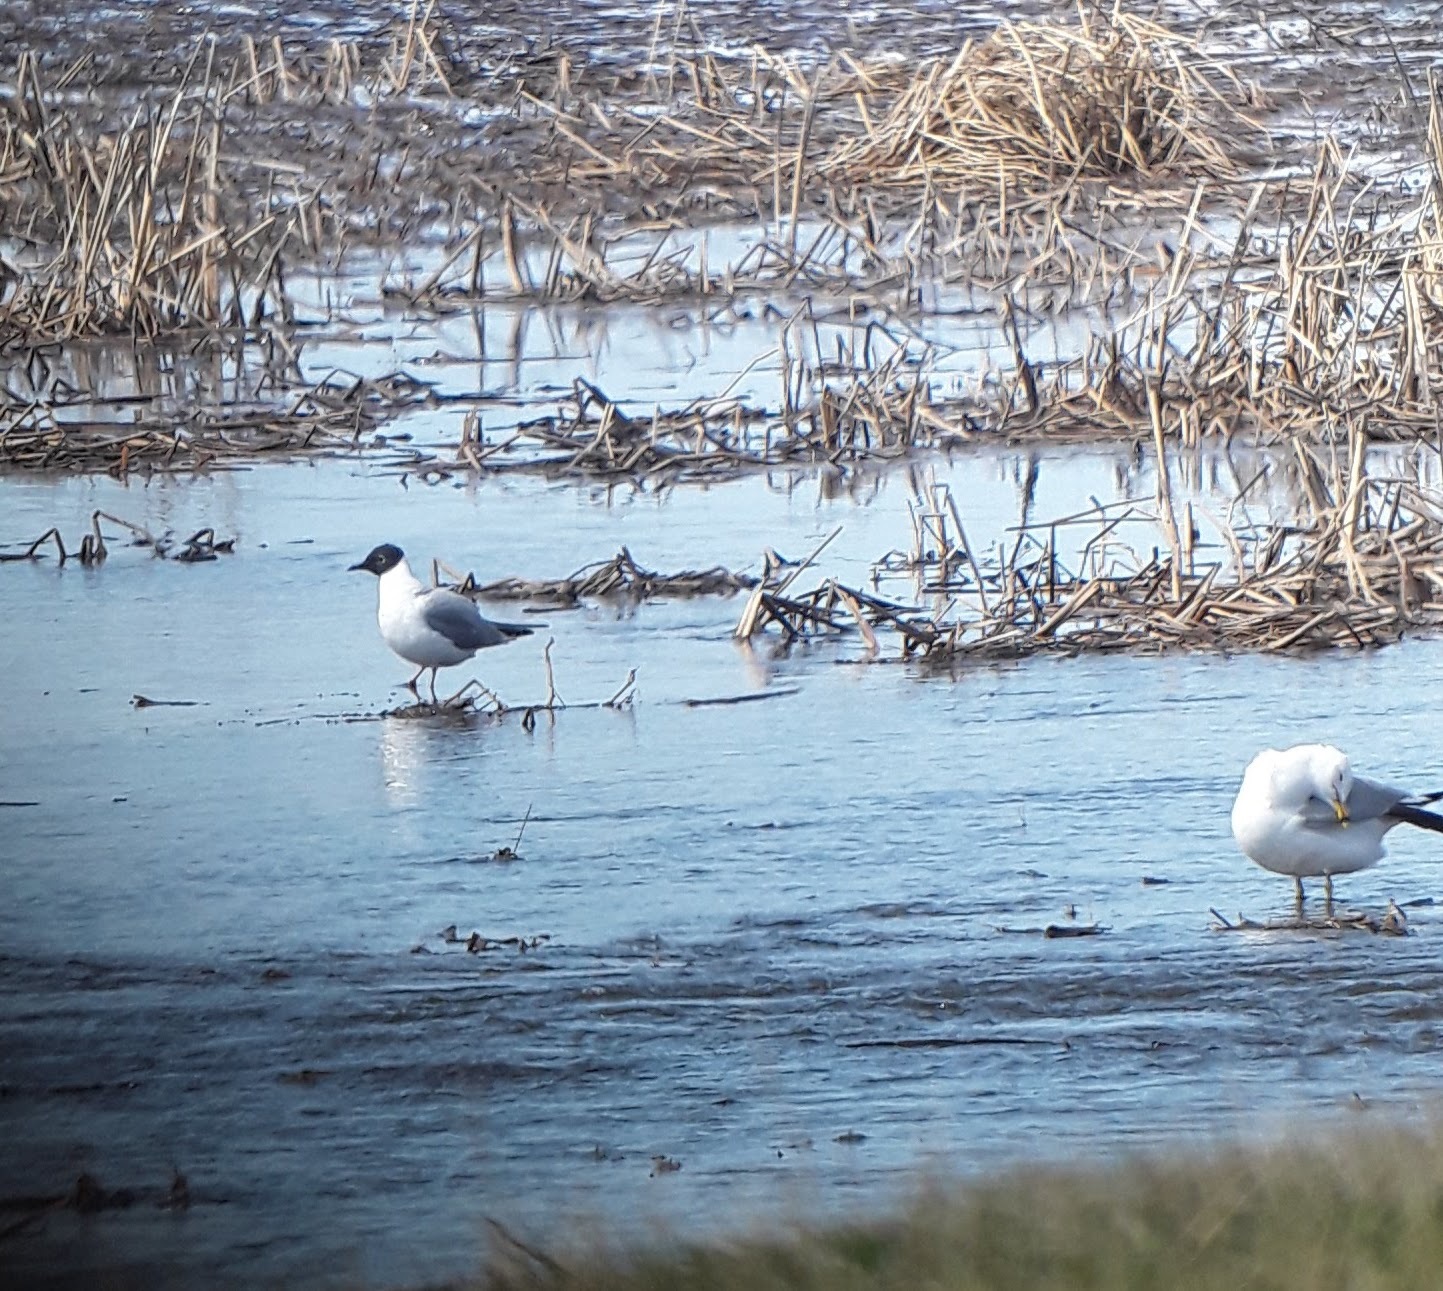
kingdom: Animalia
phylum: Chordata
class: Aves
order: Charadriiformes
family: Laridae
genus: Chroicocephalus
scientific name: Chroicocephalus philadelphia
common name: Bonaparte's gull
